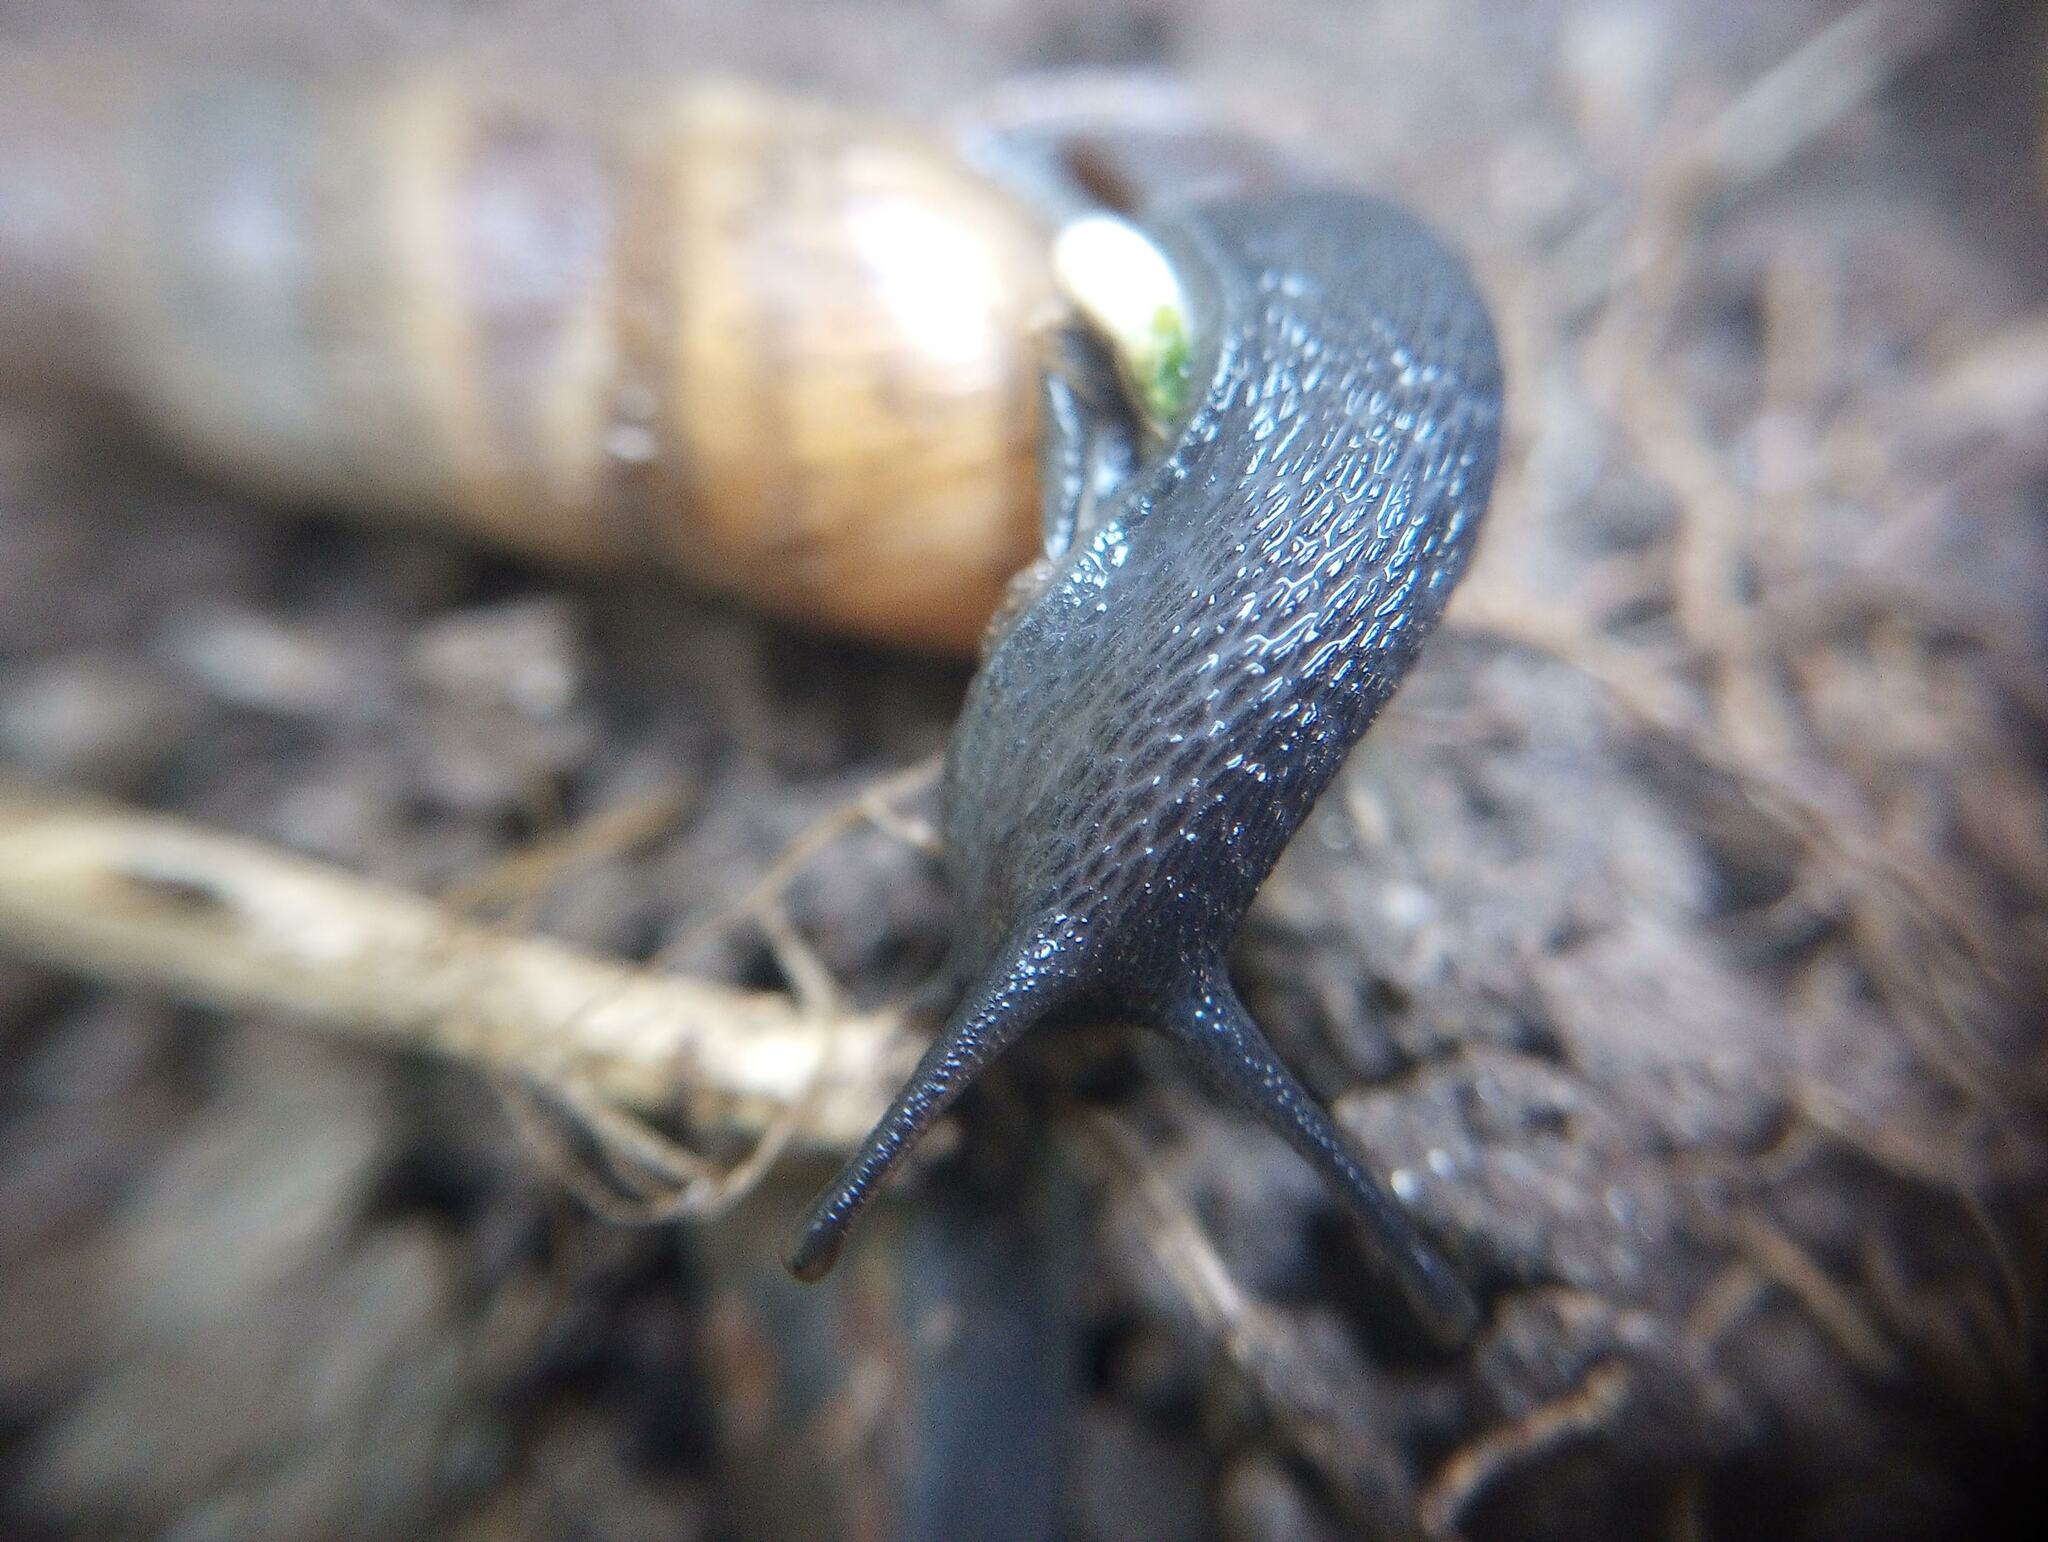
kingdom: Animalia
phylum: Mollusca
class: Gastropoda
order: Stylommatophora
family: Achatinidae
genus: Rumina
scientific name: Rumina decollata
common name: Decollate snail
